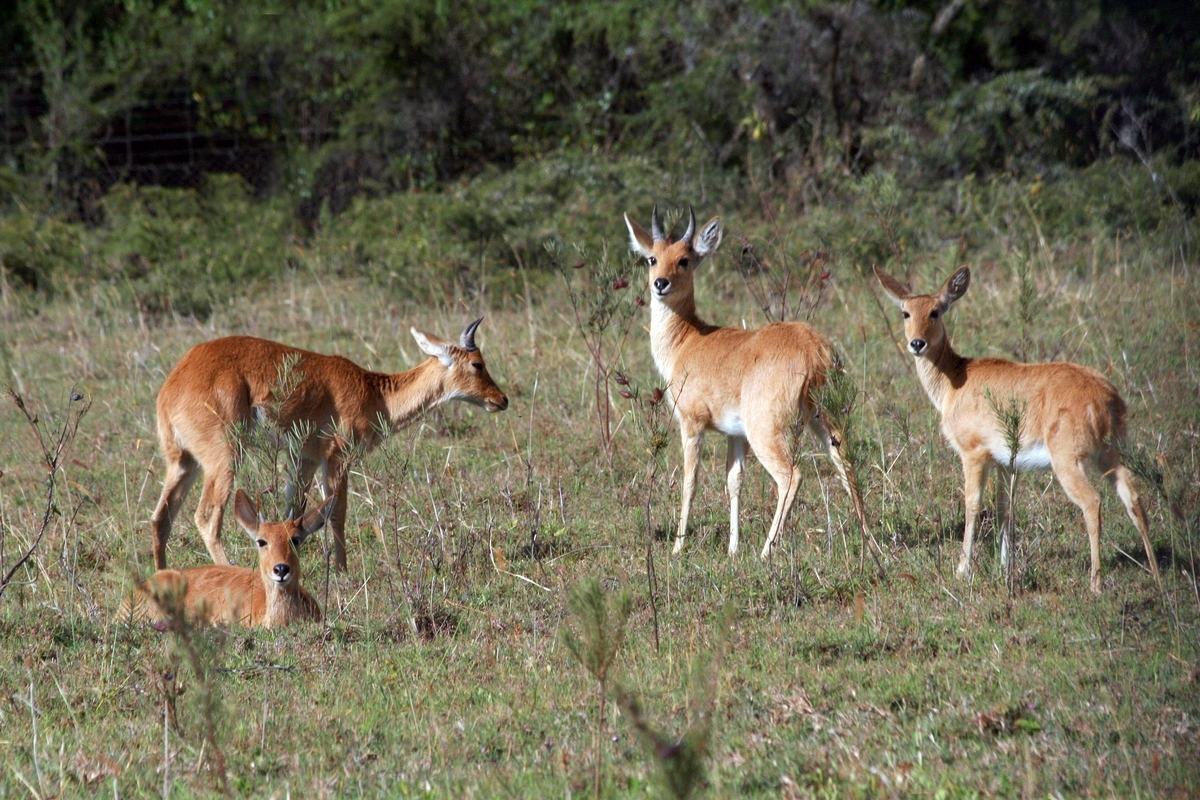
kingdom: Animalia
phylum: Chordata
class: Mammalia
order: Artiodactyla
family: Bovidae
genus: Redunca
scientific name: Redunca redunca
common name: Common reedbuck
